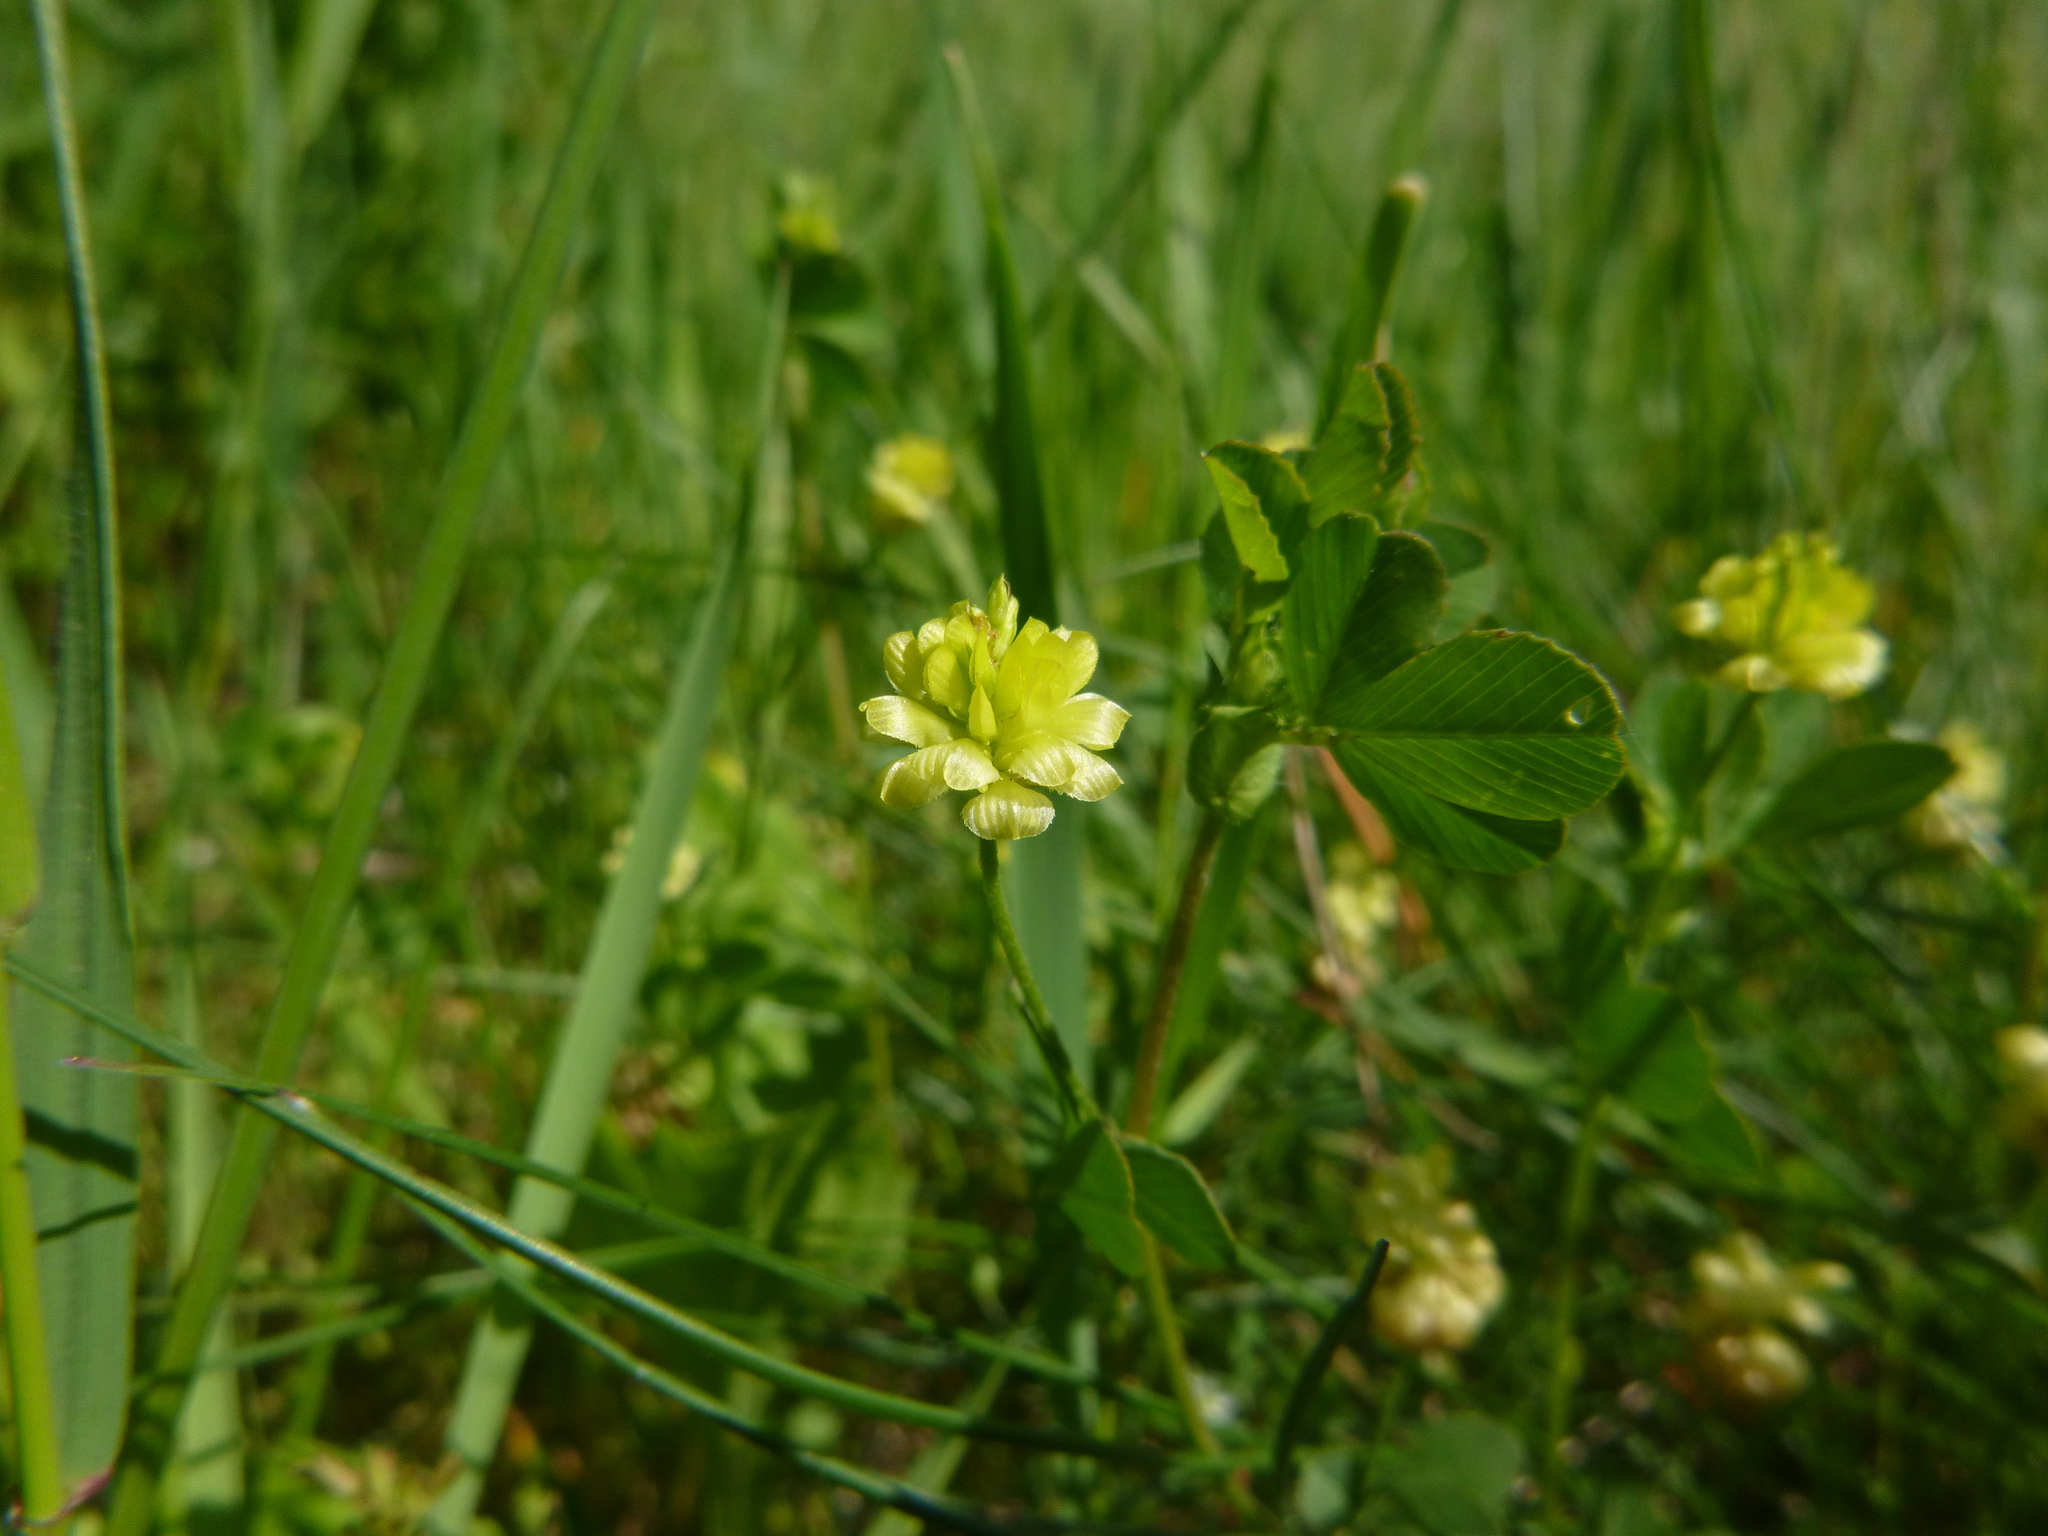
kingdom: Plantae
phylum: Tracheophyta
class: Magnoliopsida
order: Fabales
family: Fabaceae
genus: Trifolium
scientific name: Trifolium campestre
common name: Field clover
